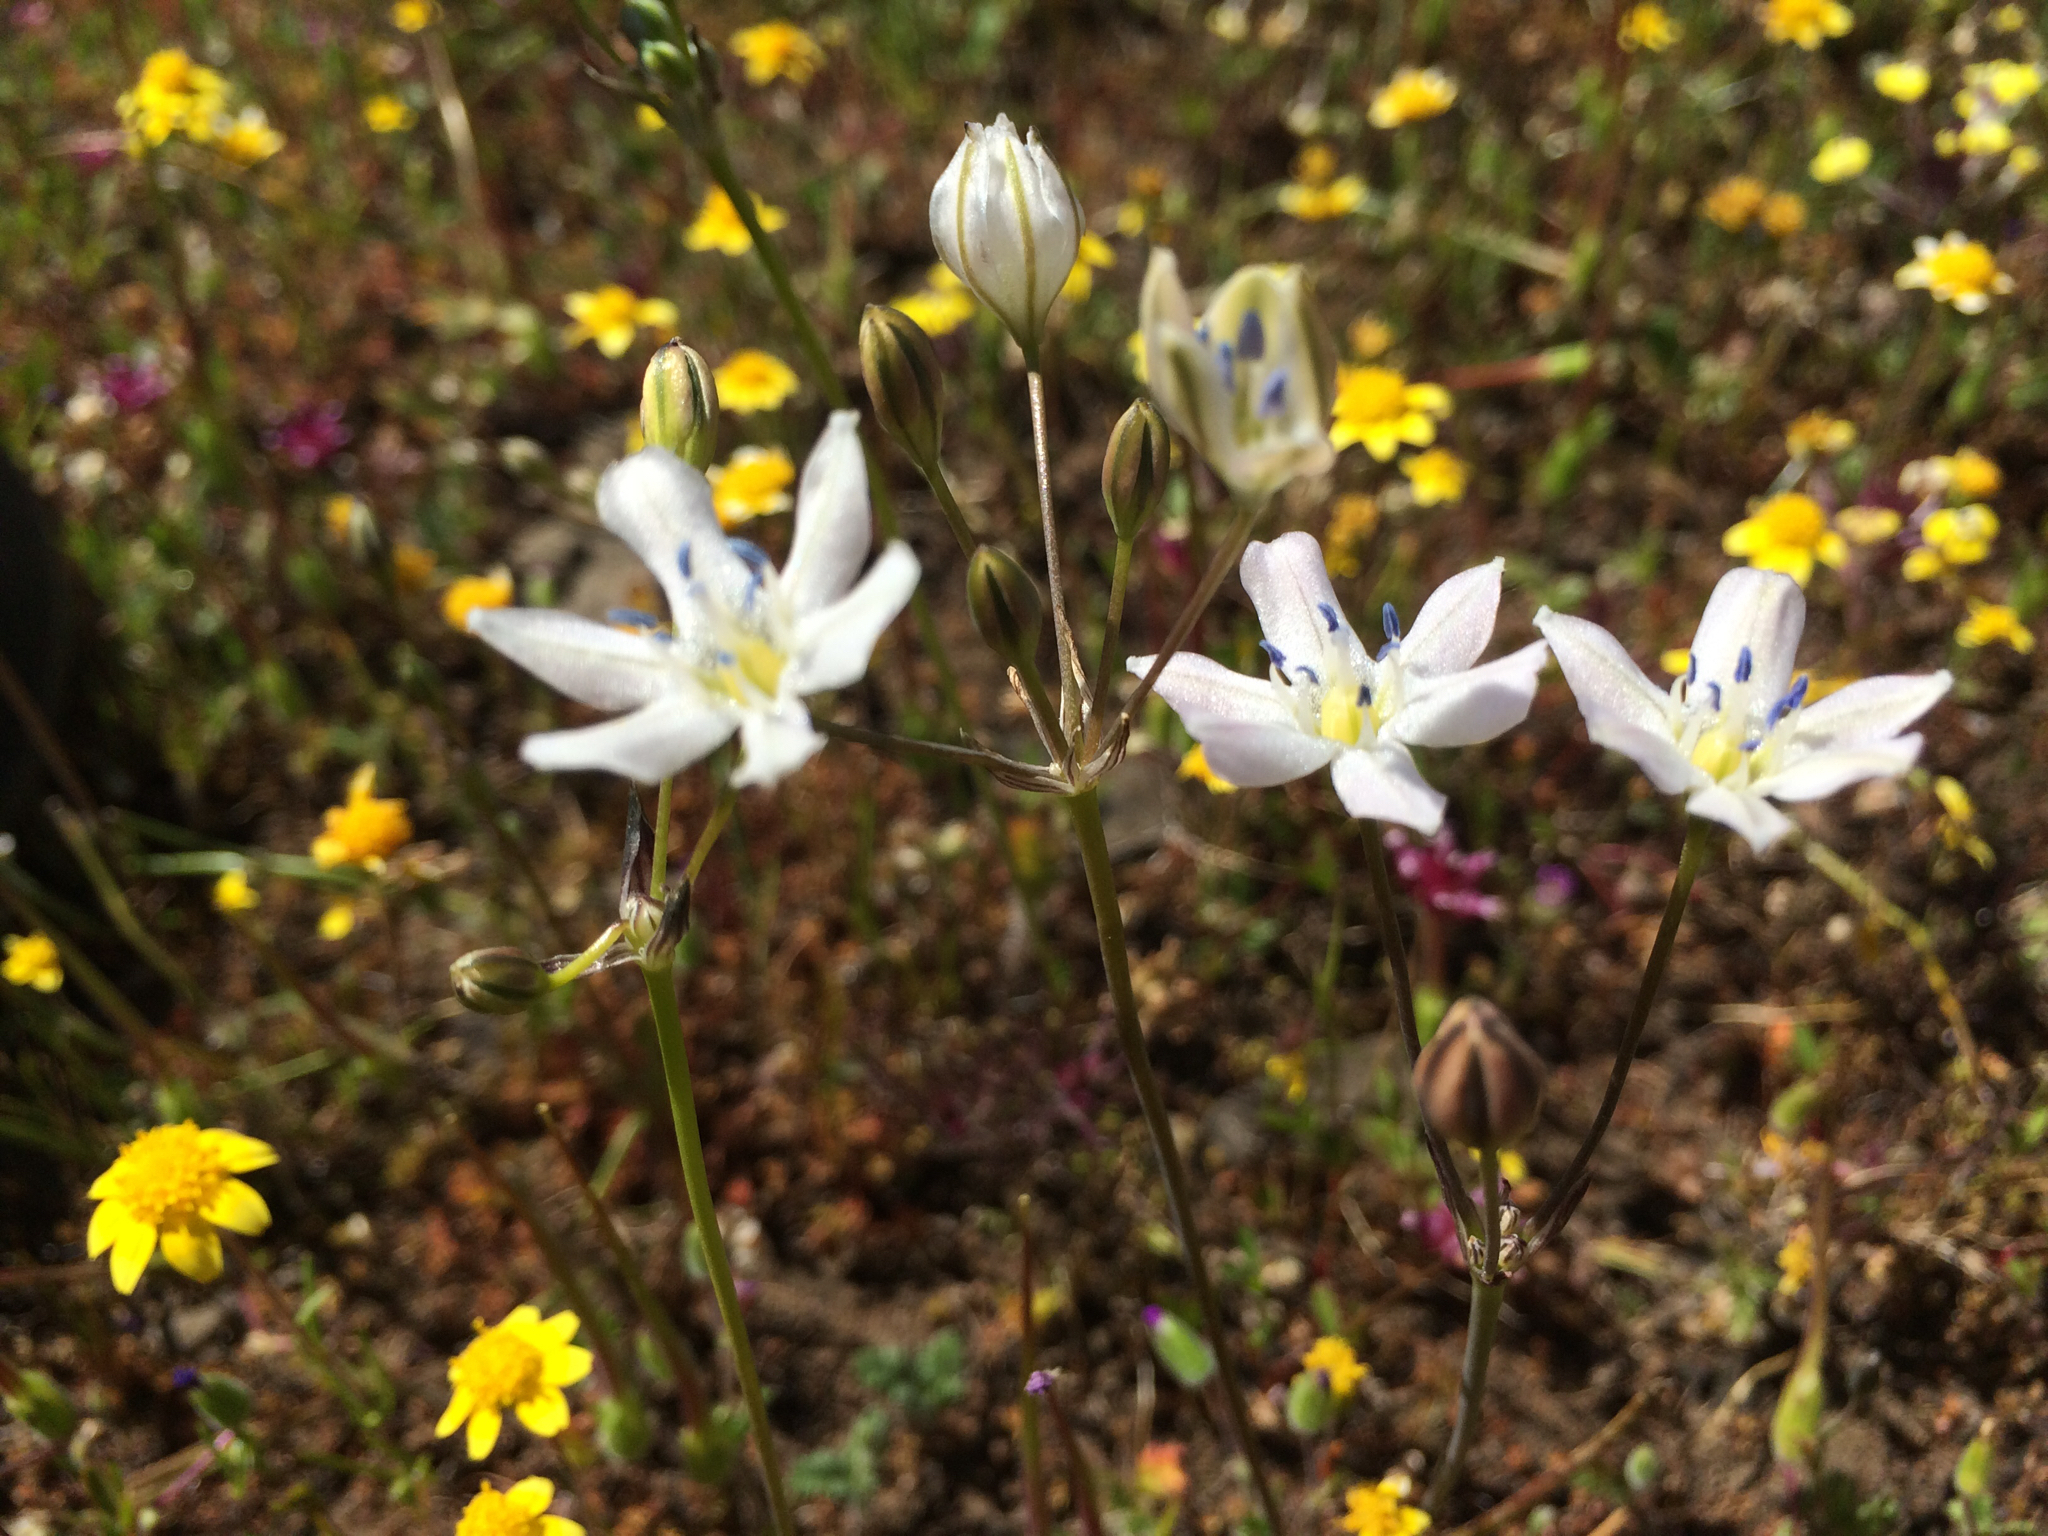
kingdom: Plantae
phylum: Tracheophyta
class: Liliopsida
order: Asparagales
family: Asparagaceae
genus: Triteleia
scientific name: Triteleia lilacina
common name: Lilac-flower wild hyacinth
